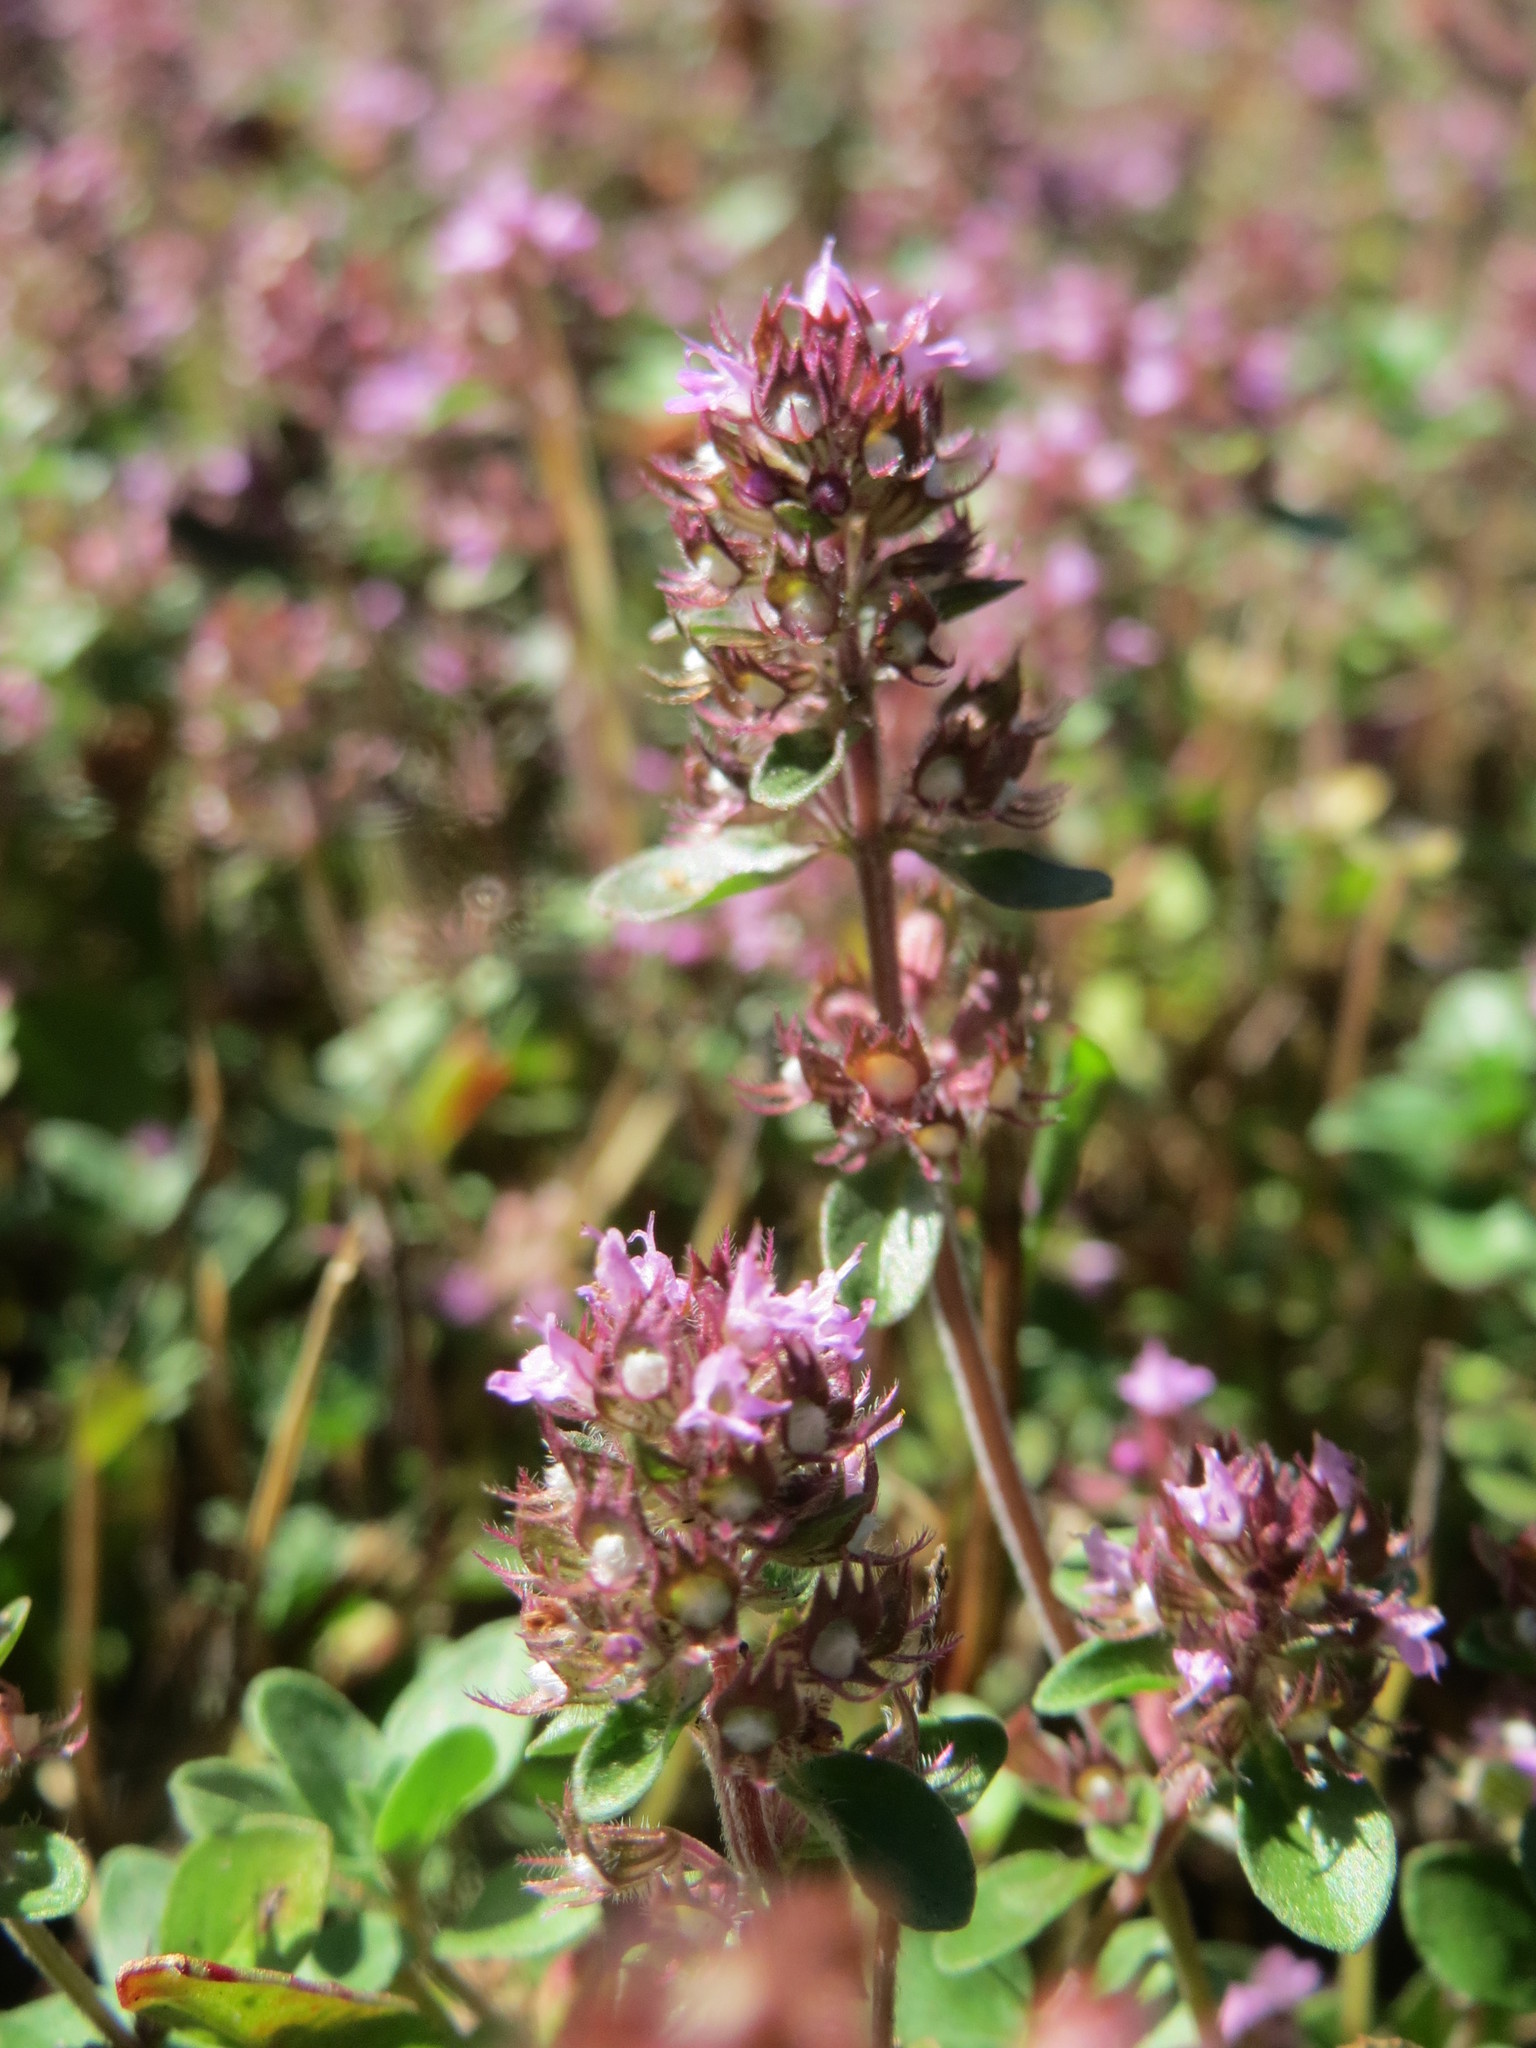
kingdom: Plantae
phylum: Tracheophyta
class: Magnoliopsida
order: Lamiales
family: Lamiaceae
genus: Thymus
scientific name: Thymus pulegioides
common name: Large thyme
